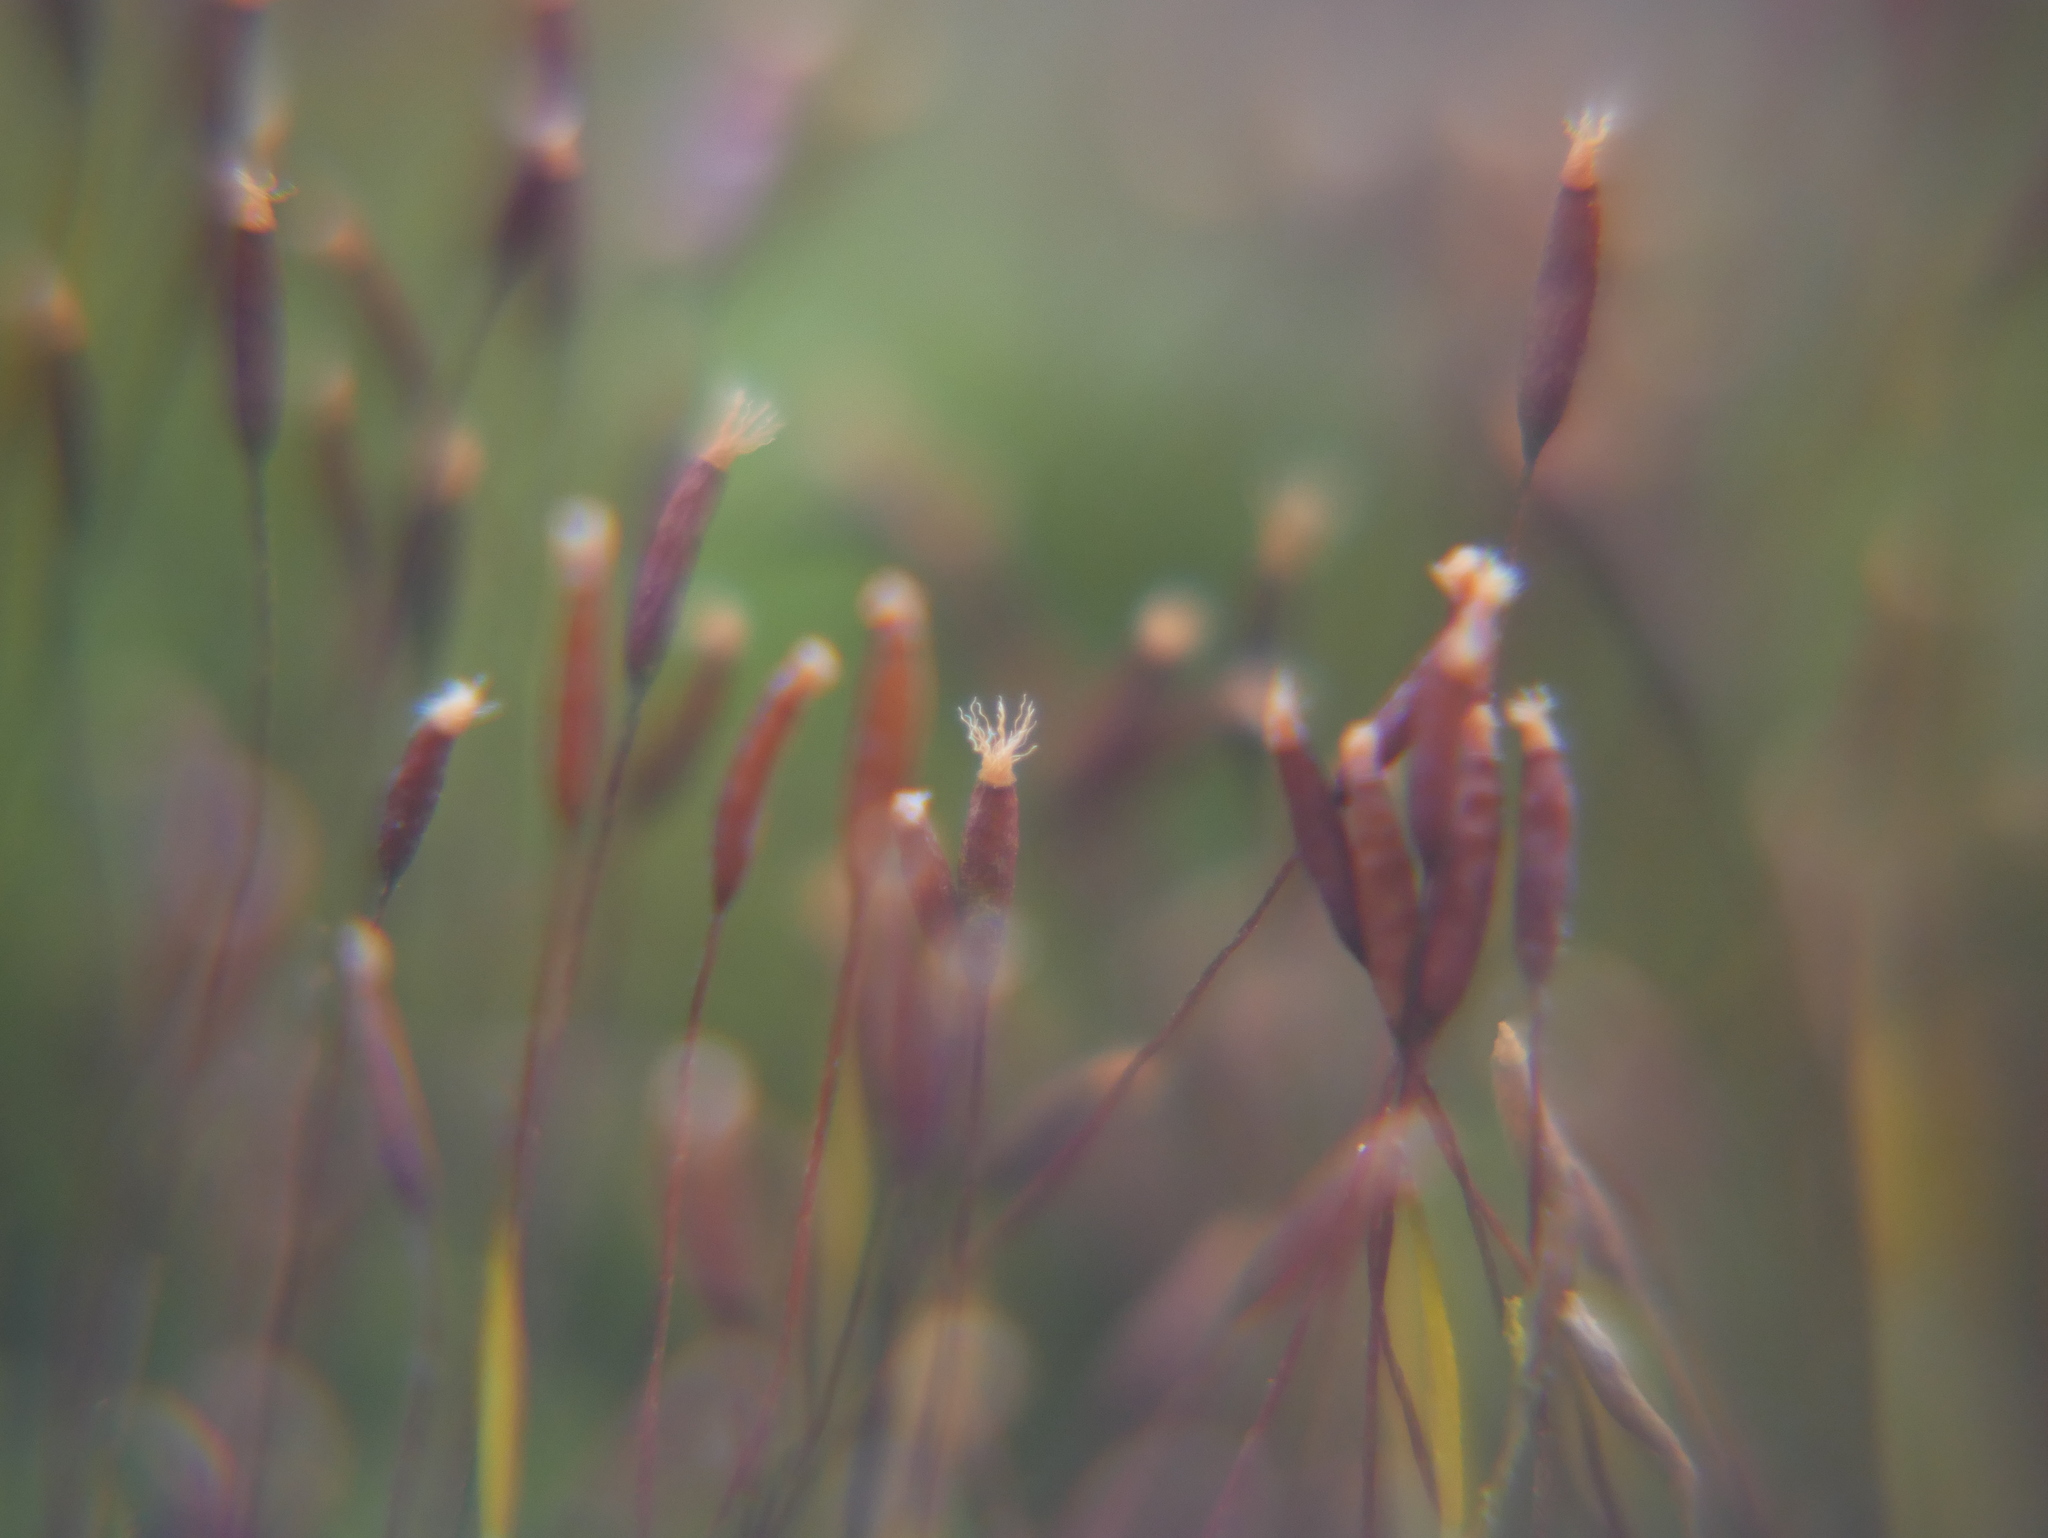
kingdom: Plantae
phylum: Bryophyta
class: Bryopsida
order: Pottiales
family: Pottiaceae
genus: Tortula
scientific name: Tortula muralis
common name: Wall screw-moss
